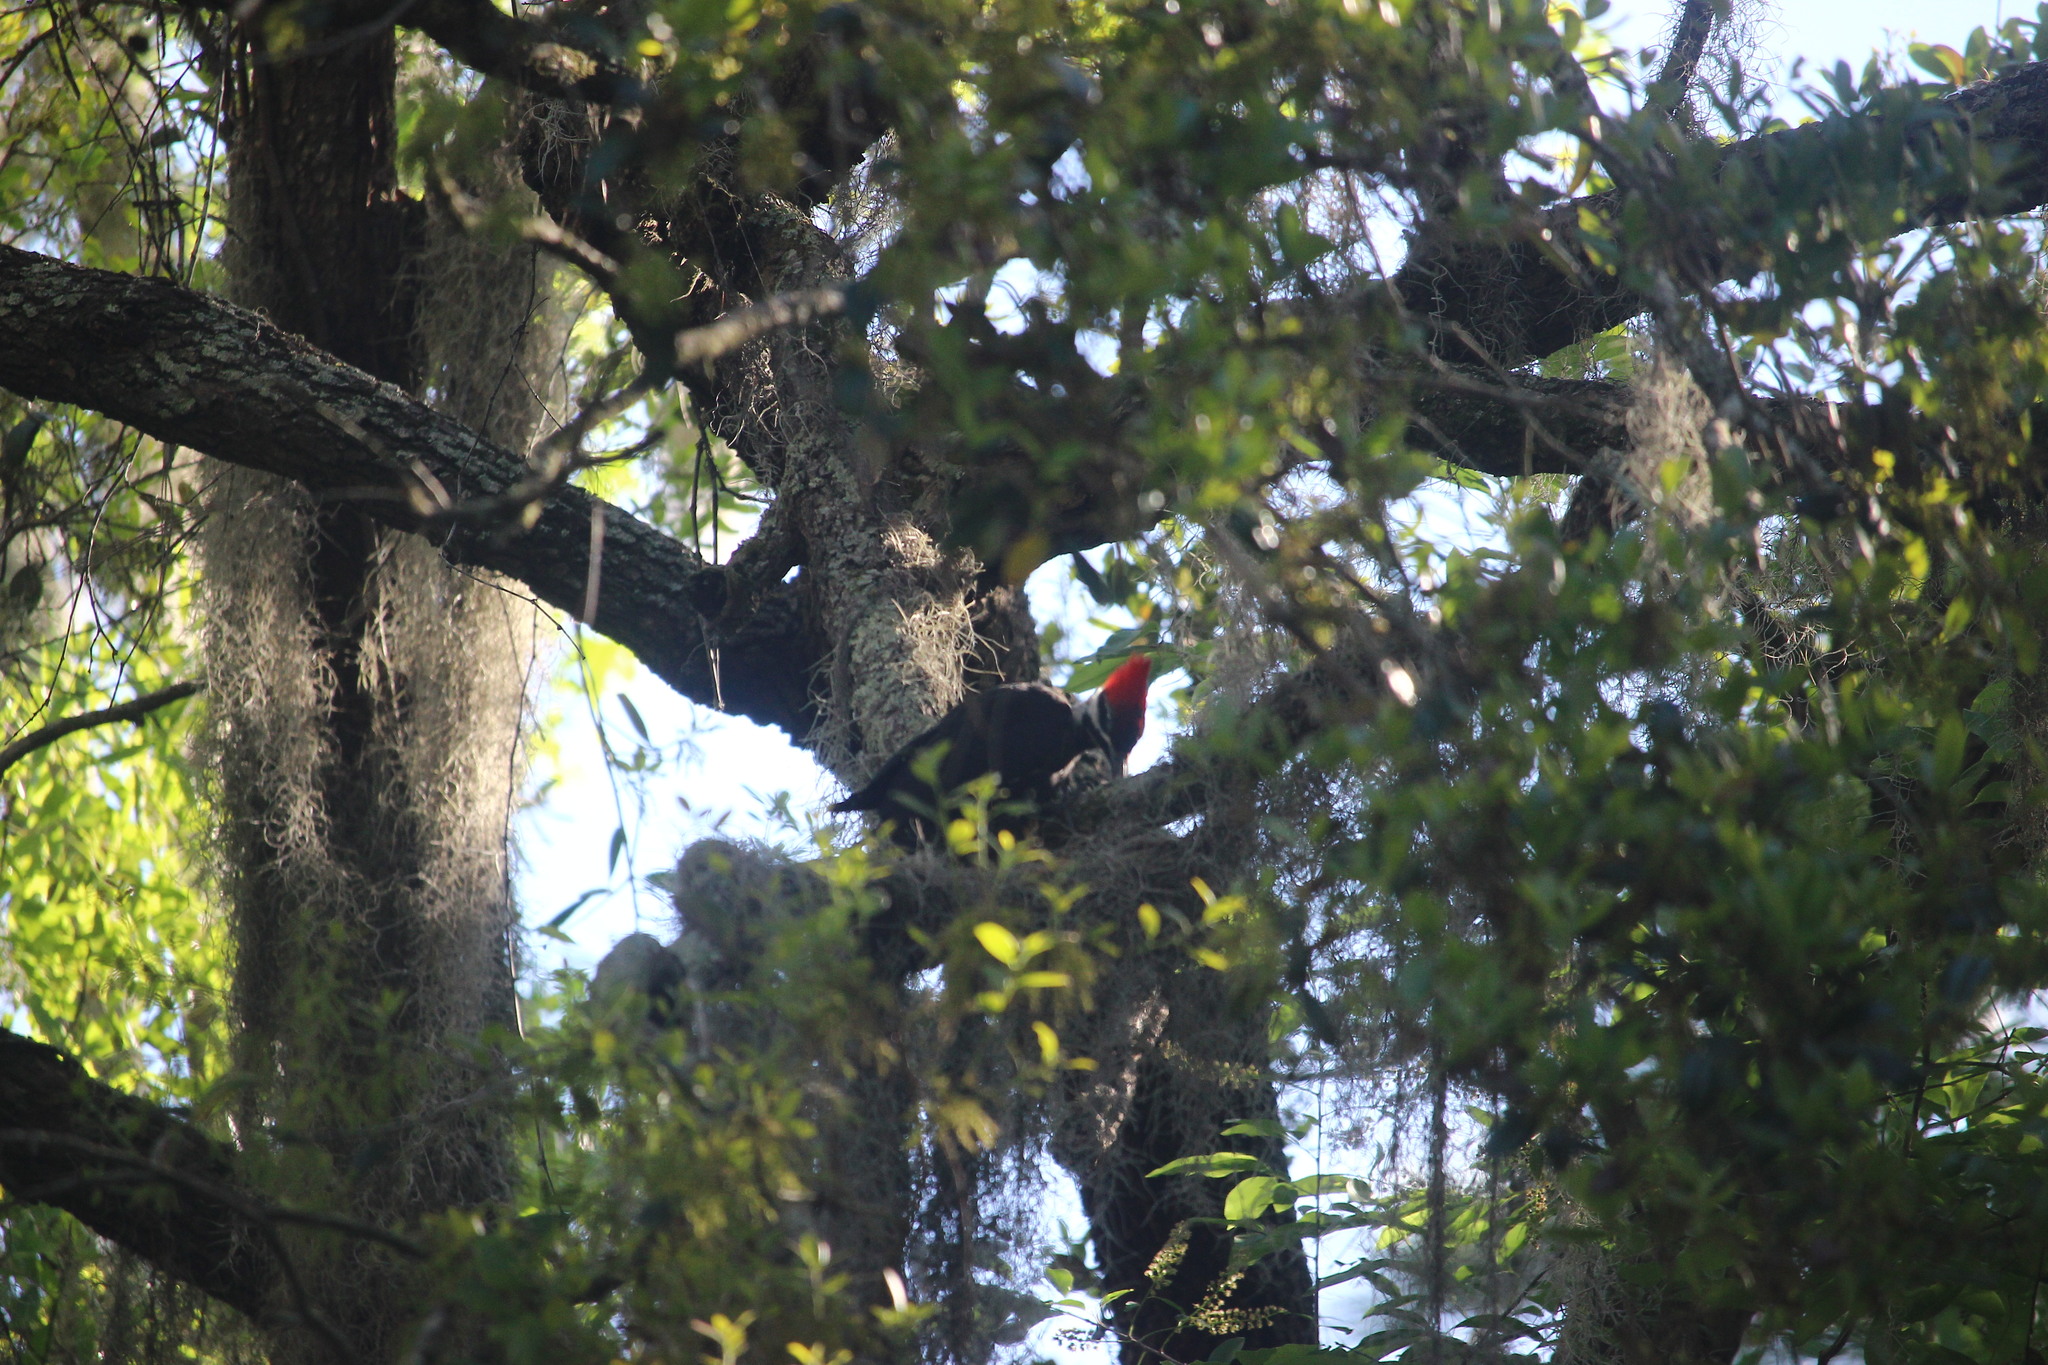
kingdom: Animalia
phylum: Chordata
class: Aves
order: Piciformes
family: Picidae
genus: Dryocopus
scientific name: Dryocopus pileatus
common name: Pileated woodpecker
